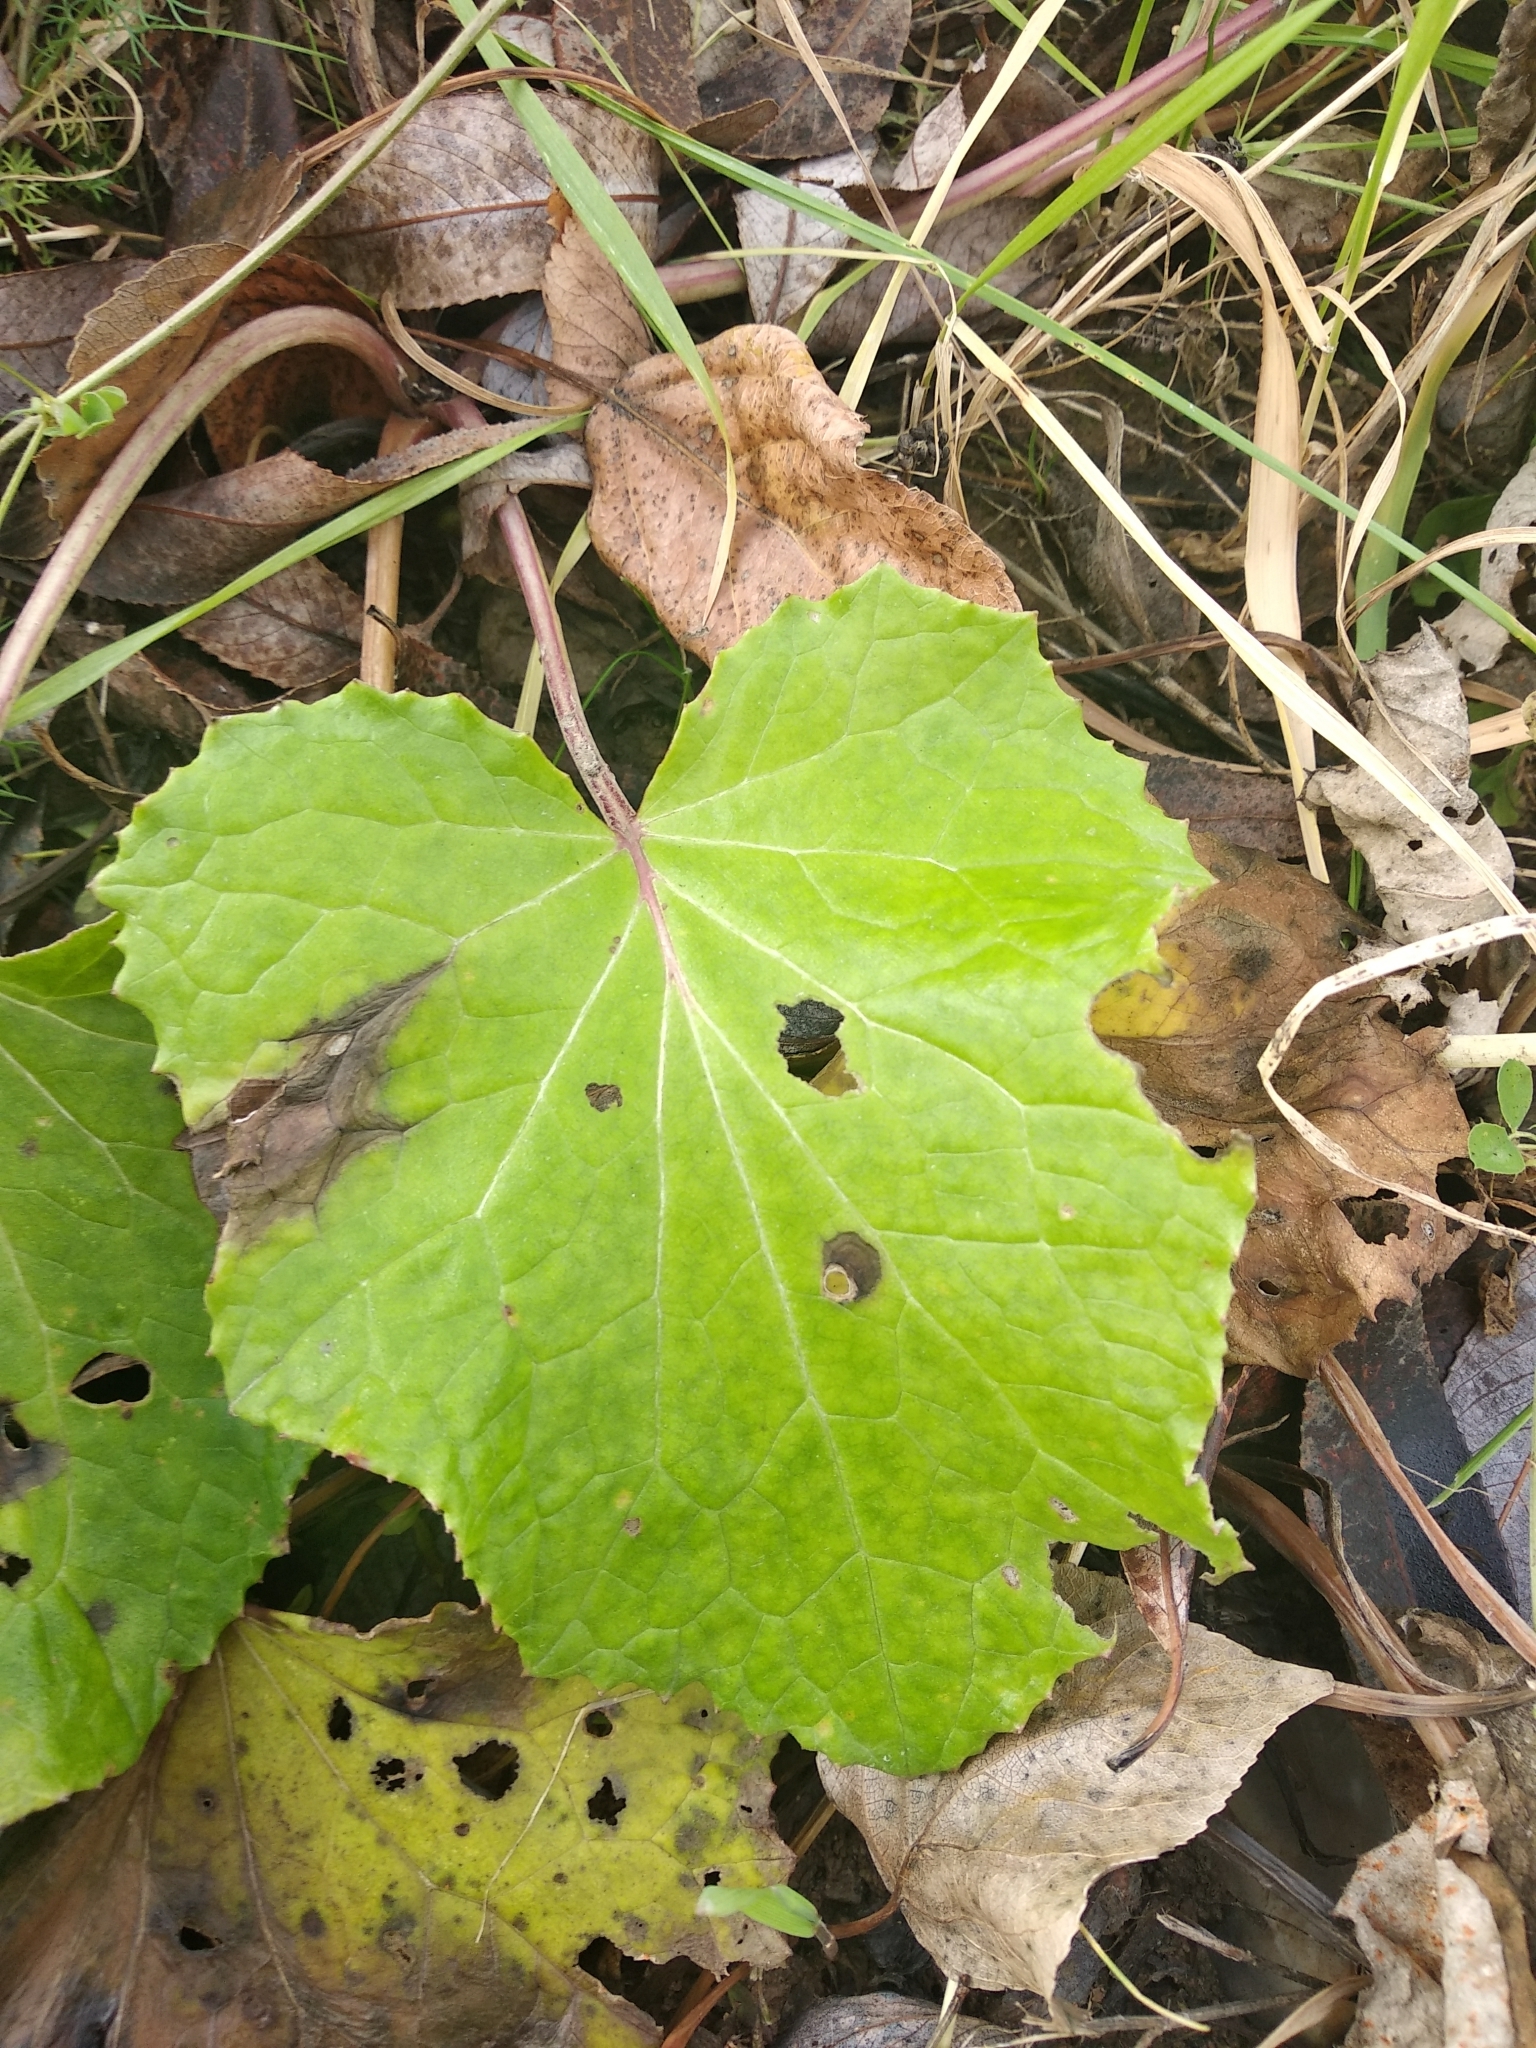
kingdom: Plantae
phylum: Tracheophyta
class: Magnoliopsida
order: Asterales
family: Asteraceae
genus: Tussilago
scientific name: Tussilago farfara
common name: Coltsfoot
